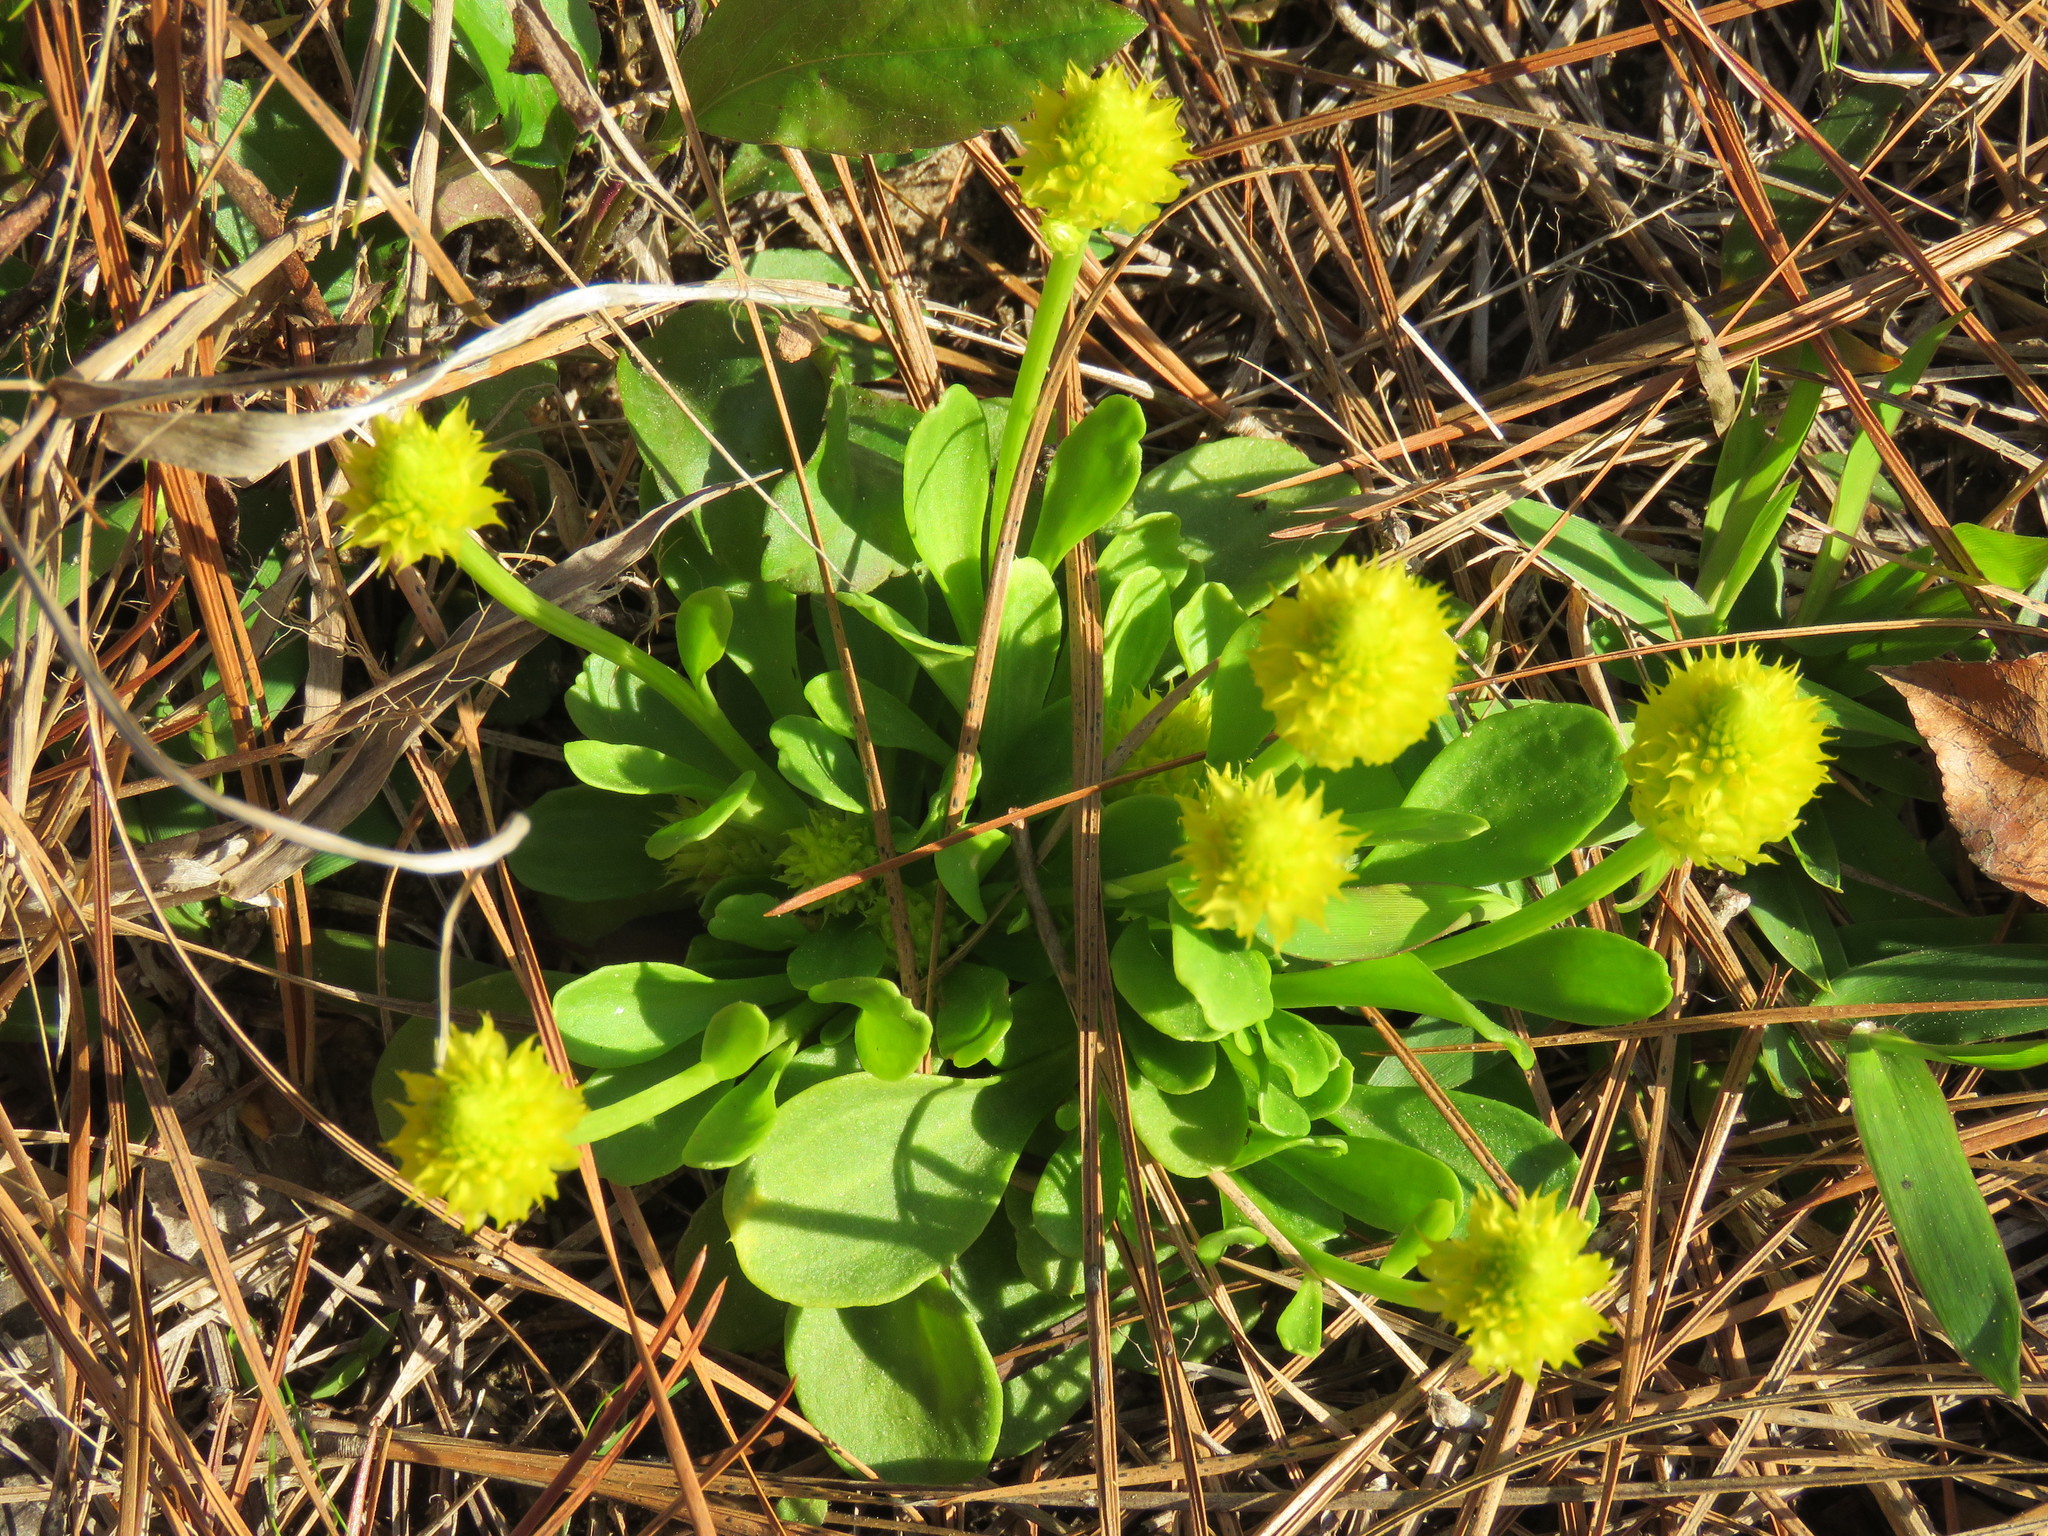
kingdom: Plantae
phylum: Tracheophyta
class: Magnoliopsida
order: Fabales
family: Polygalaceae
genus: Polygala
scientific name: Polygala nana
